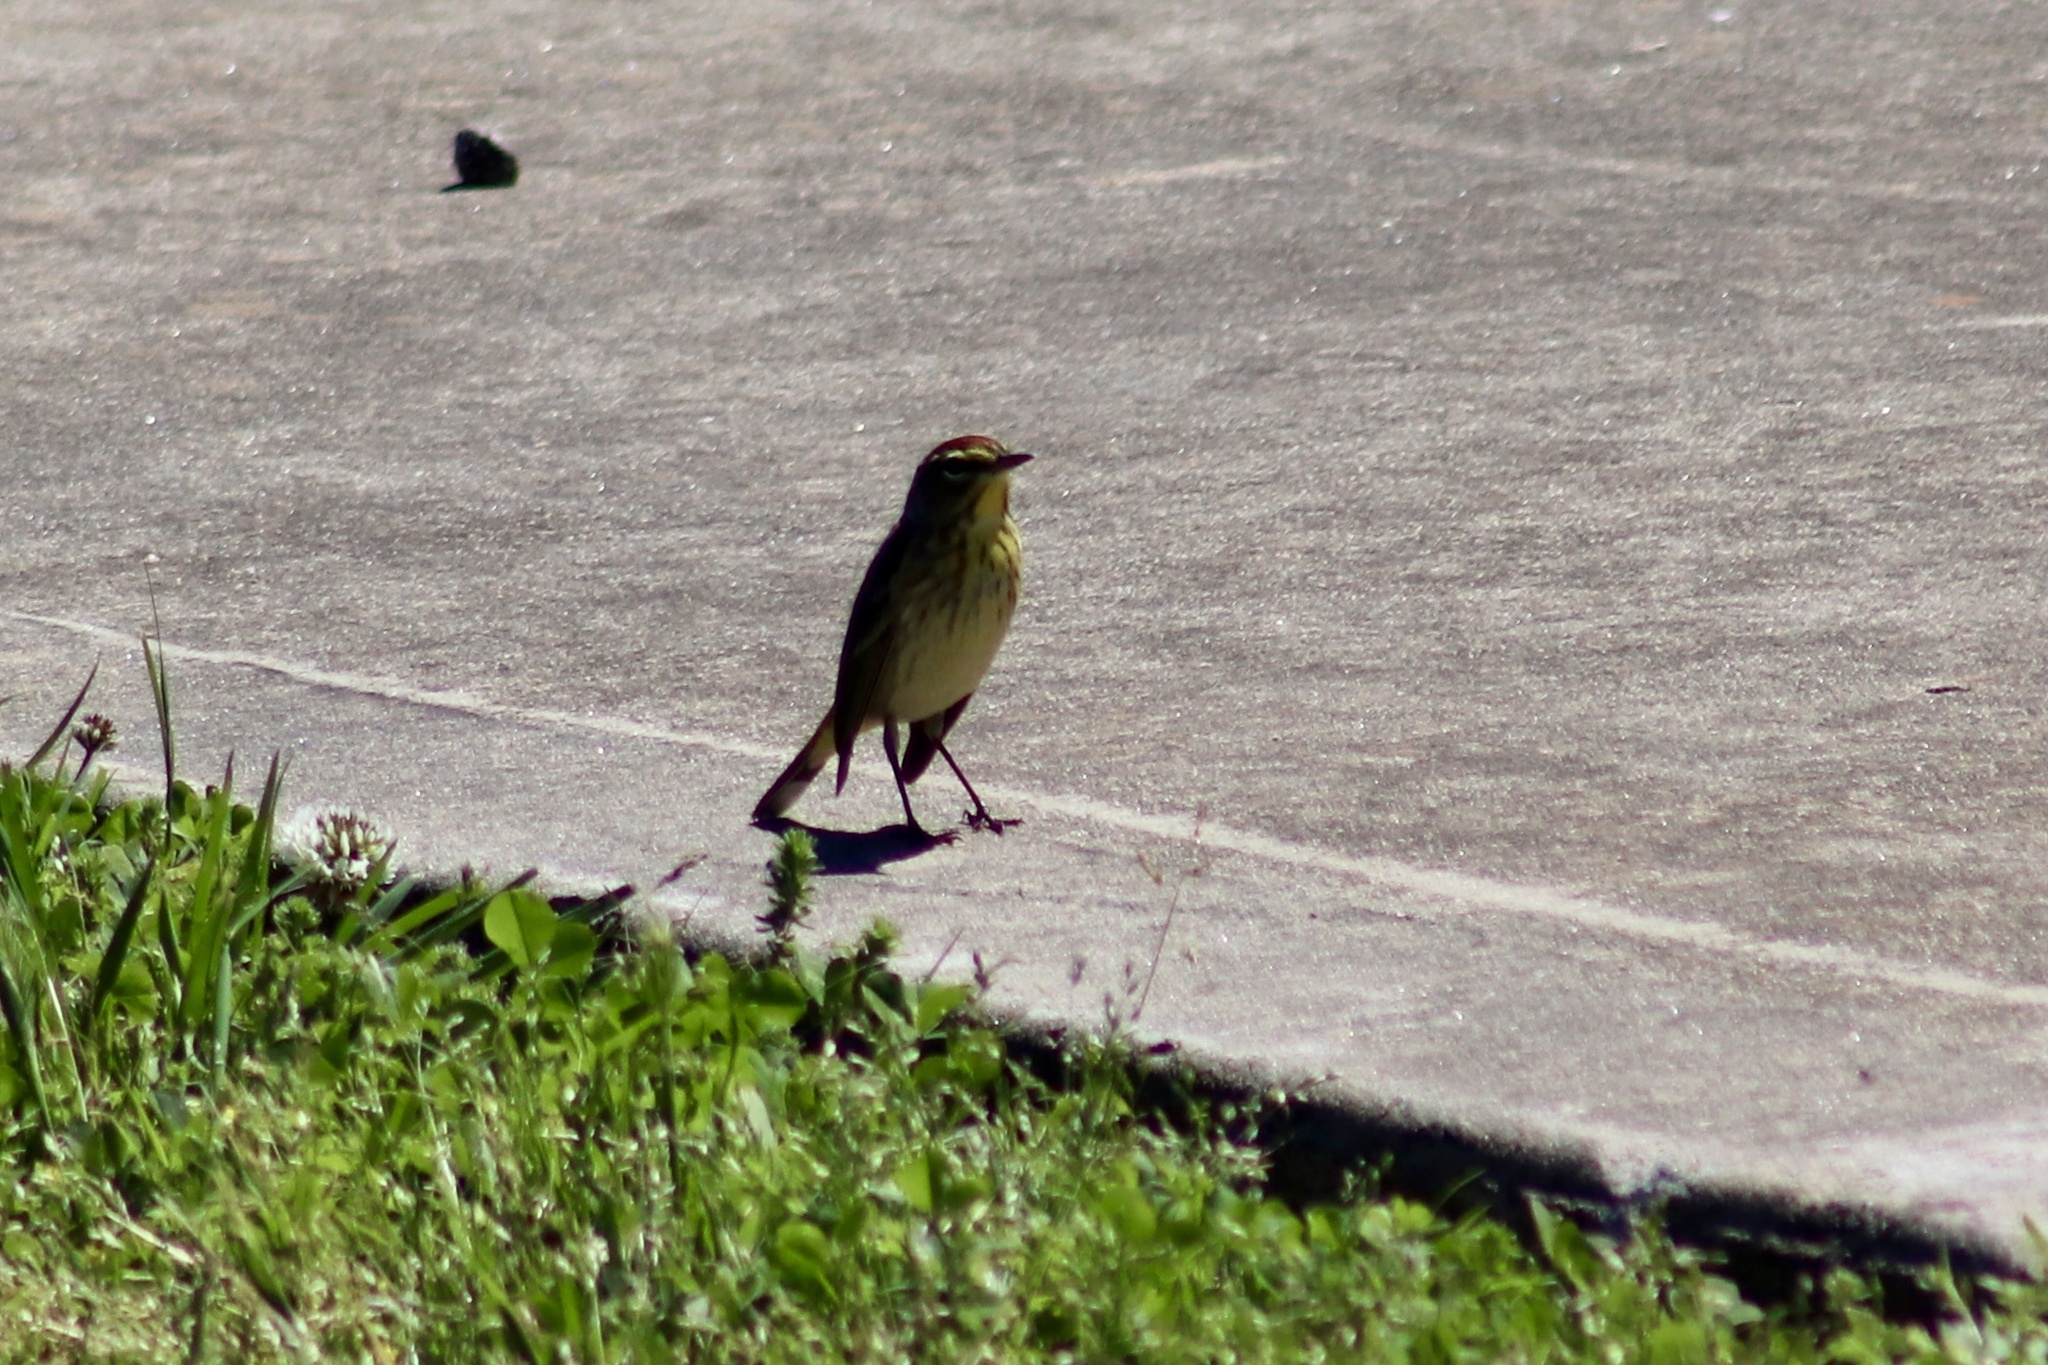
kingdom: Animalia
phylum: Chordata
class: Aves
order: Passeriformes
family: Parulidae
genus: Setophaga
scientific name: Setophaga palmarum
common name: Palm warbler
